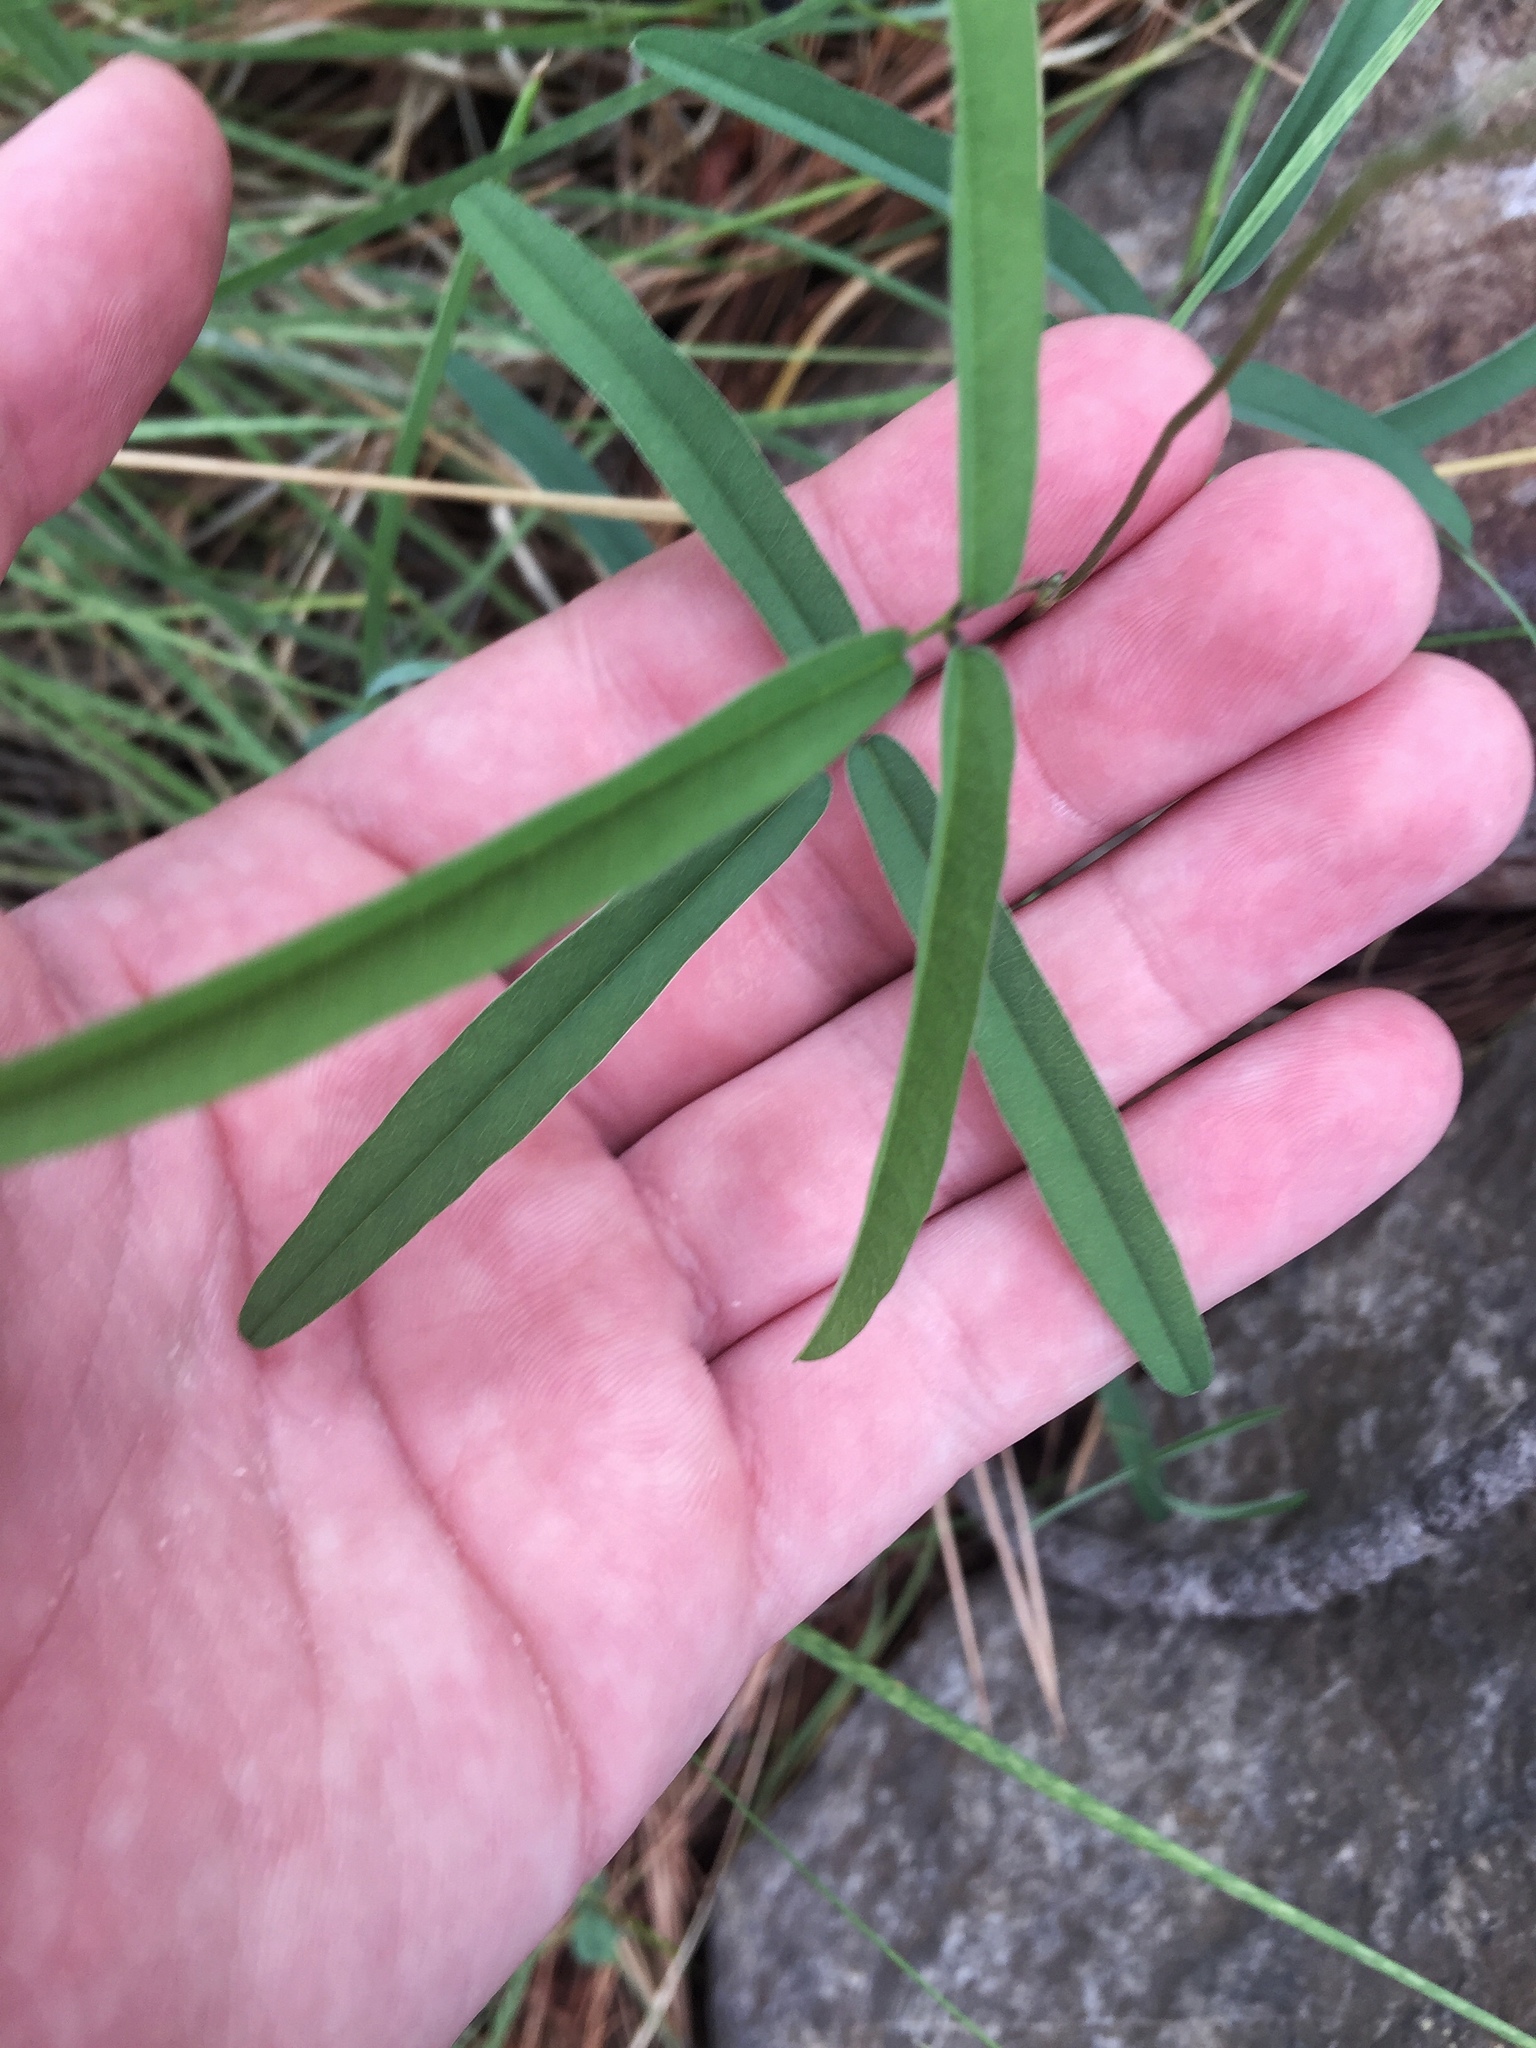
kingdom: Plantae
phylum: Tracheophyta
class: Magnoliopsida
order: Fabales
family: Fabaceae
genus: Cologania
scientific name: Cologania angustifolia
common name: Longleaf cologania
